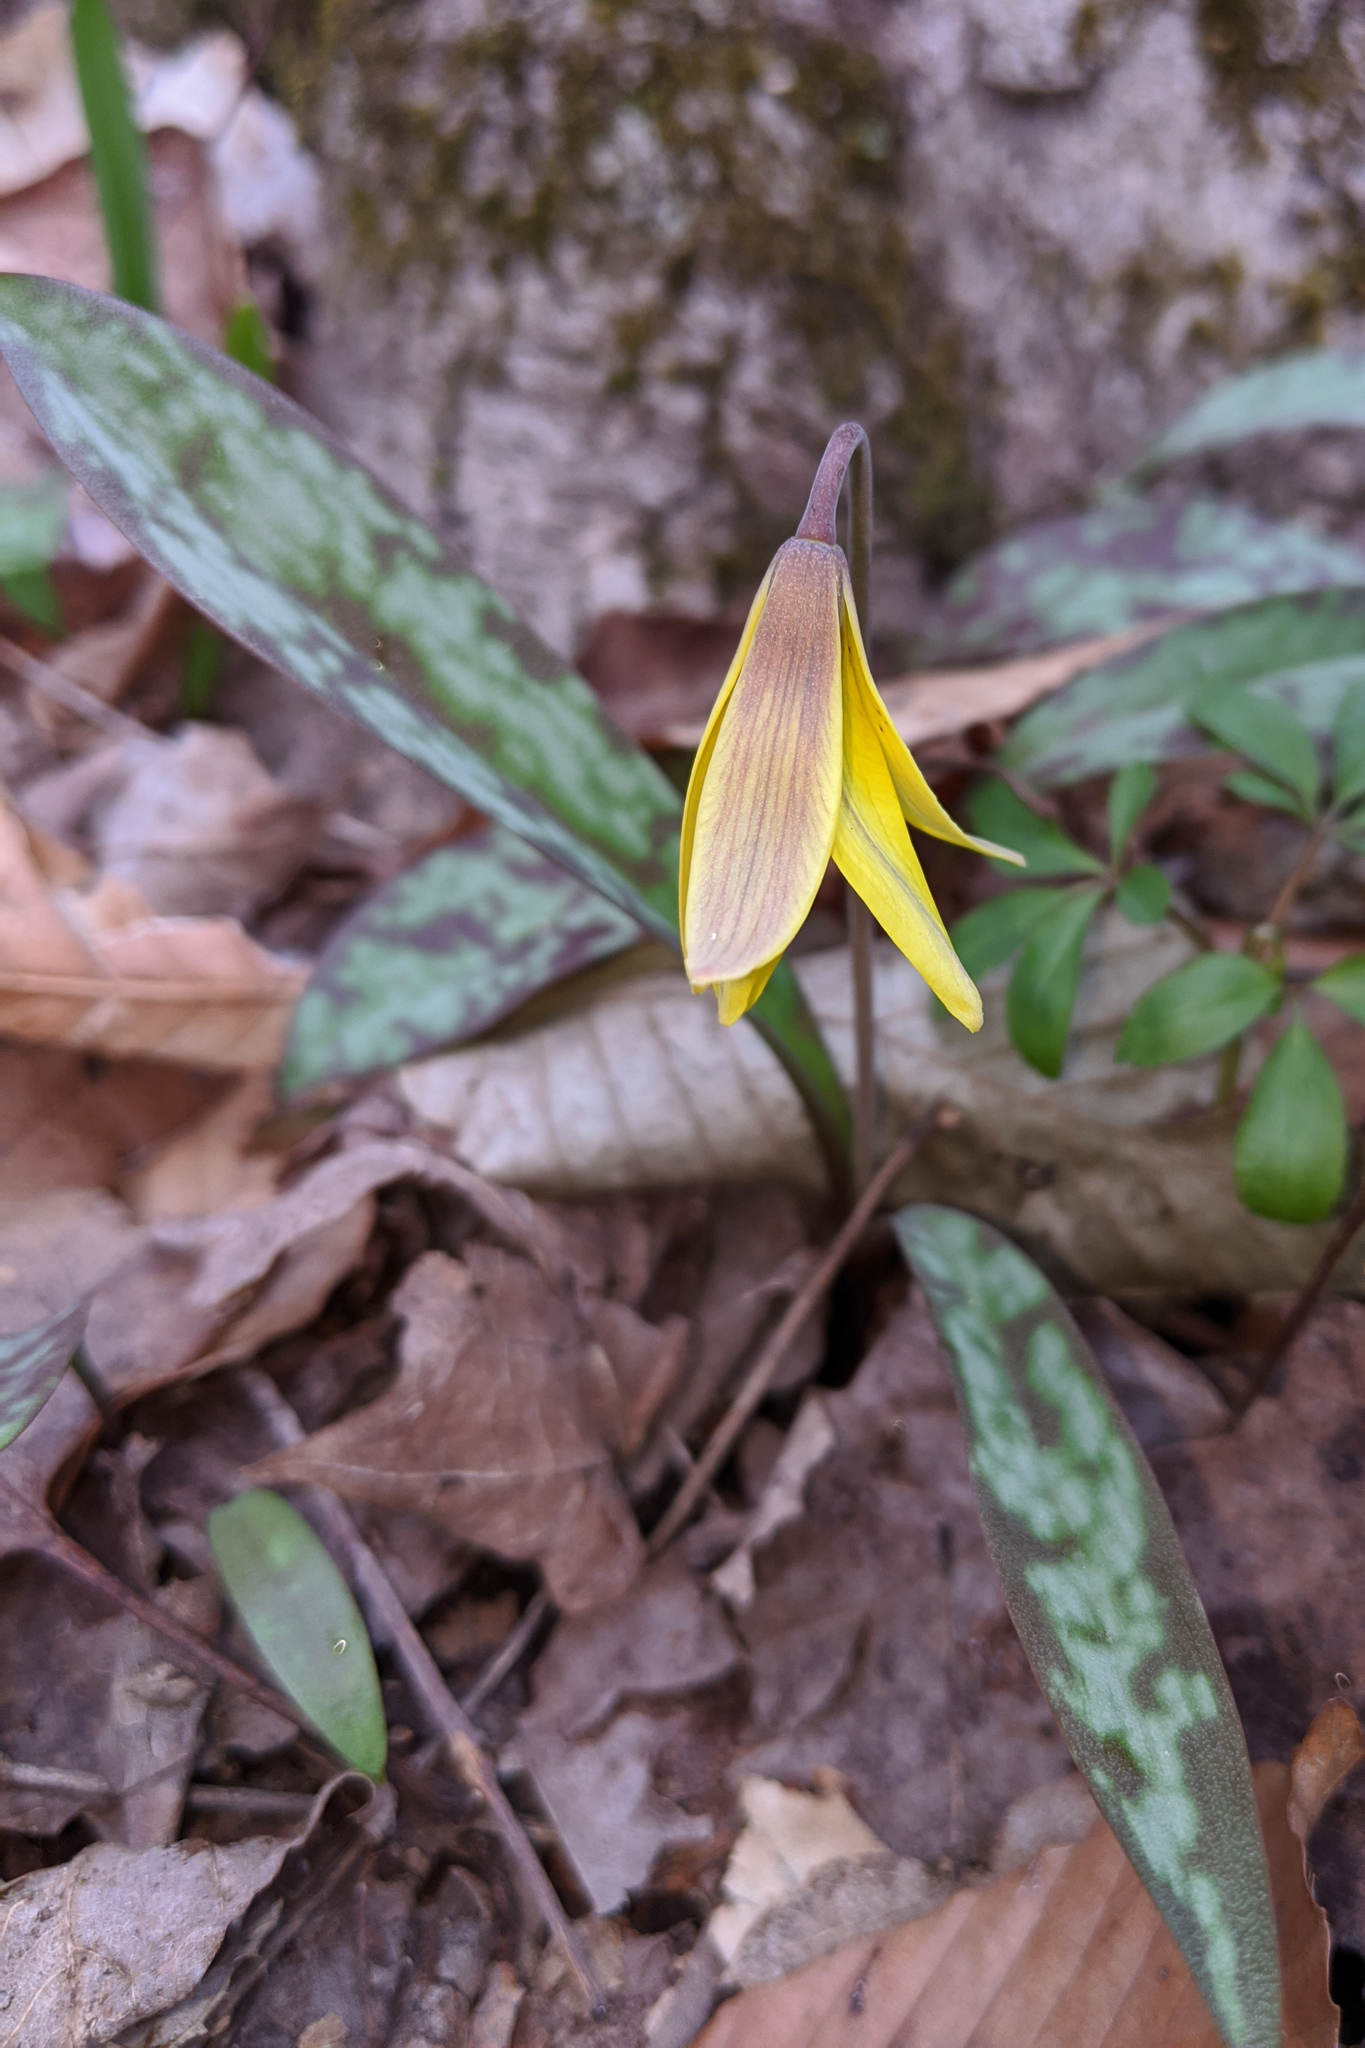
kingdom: Plantae
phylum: Tracheophyta
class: Liliopsida
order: Liliales
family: Liliaceae
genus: Erythronium
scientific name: Erythronium americanum
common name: Yellow adder's-tongue
